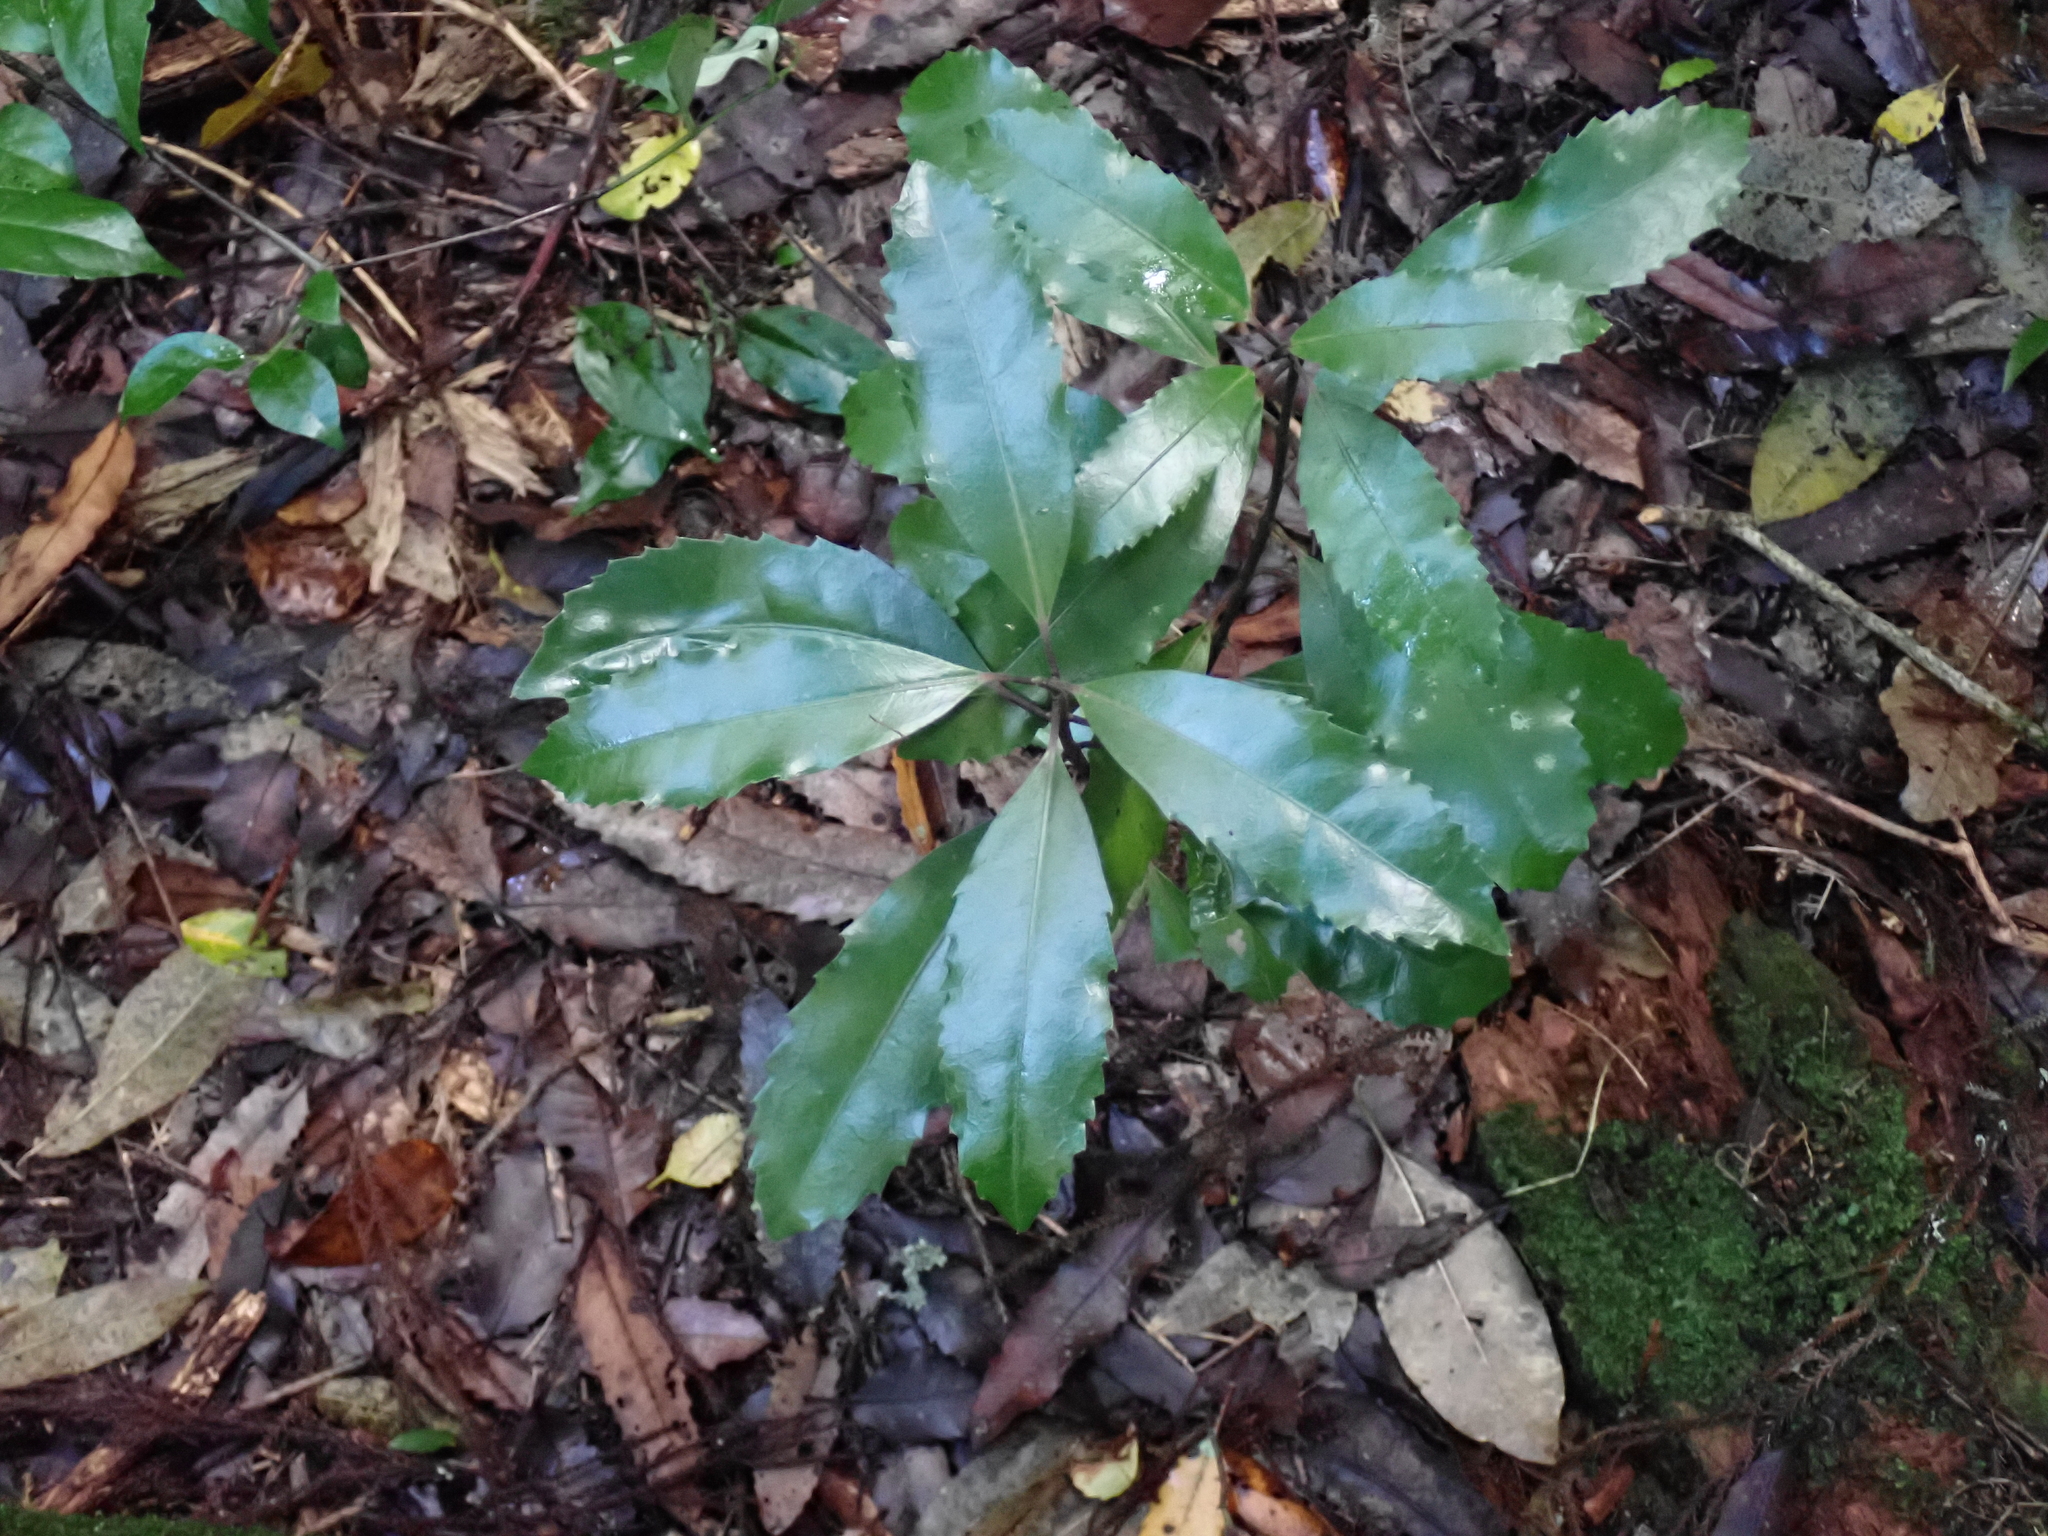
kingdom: Plantae
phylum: Tracheophyta
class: Magnoliopsida
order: Laurales
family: Monimiaceae
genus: Hedycarya
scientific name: Hedycarya arborea
